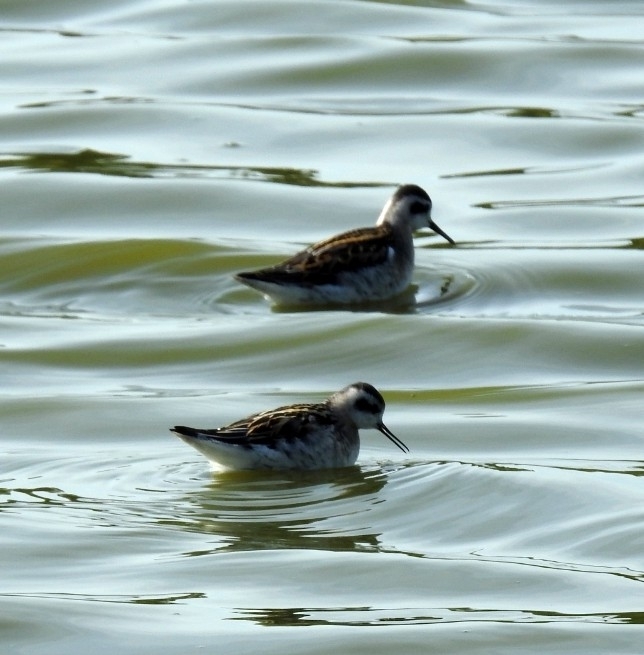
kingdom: Animalia
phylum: Chordata
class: Aves
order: Charadriiformes
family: Scolopacidae
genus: Phalaropus
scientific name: Phalaropus lobatus
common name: Red-necked phalarope
